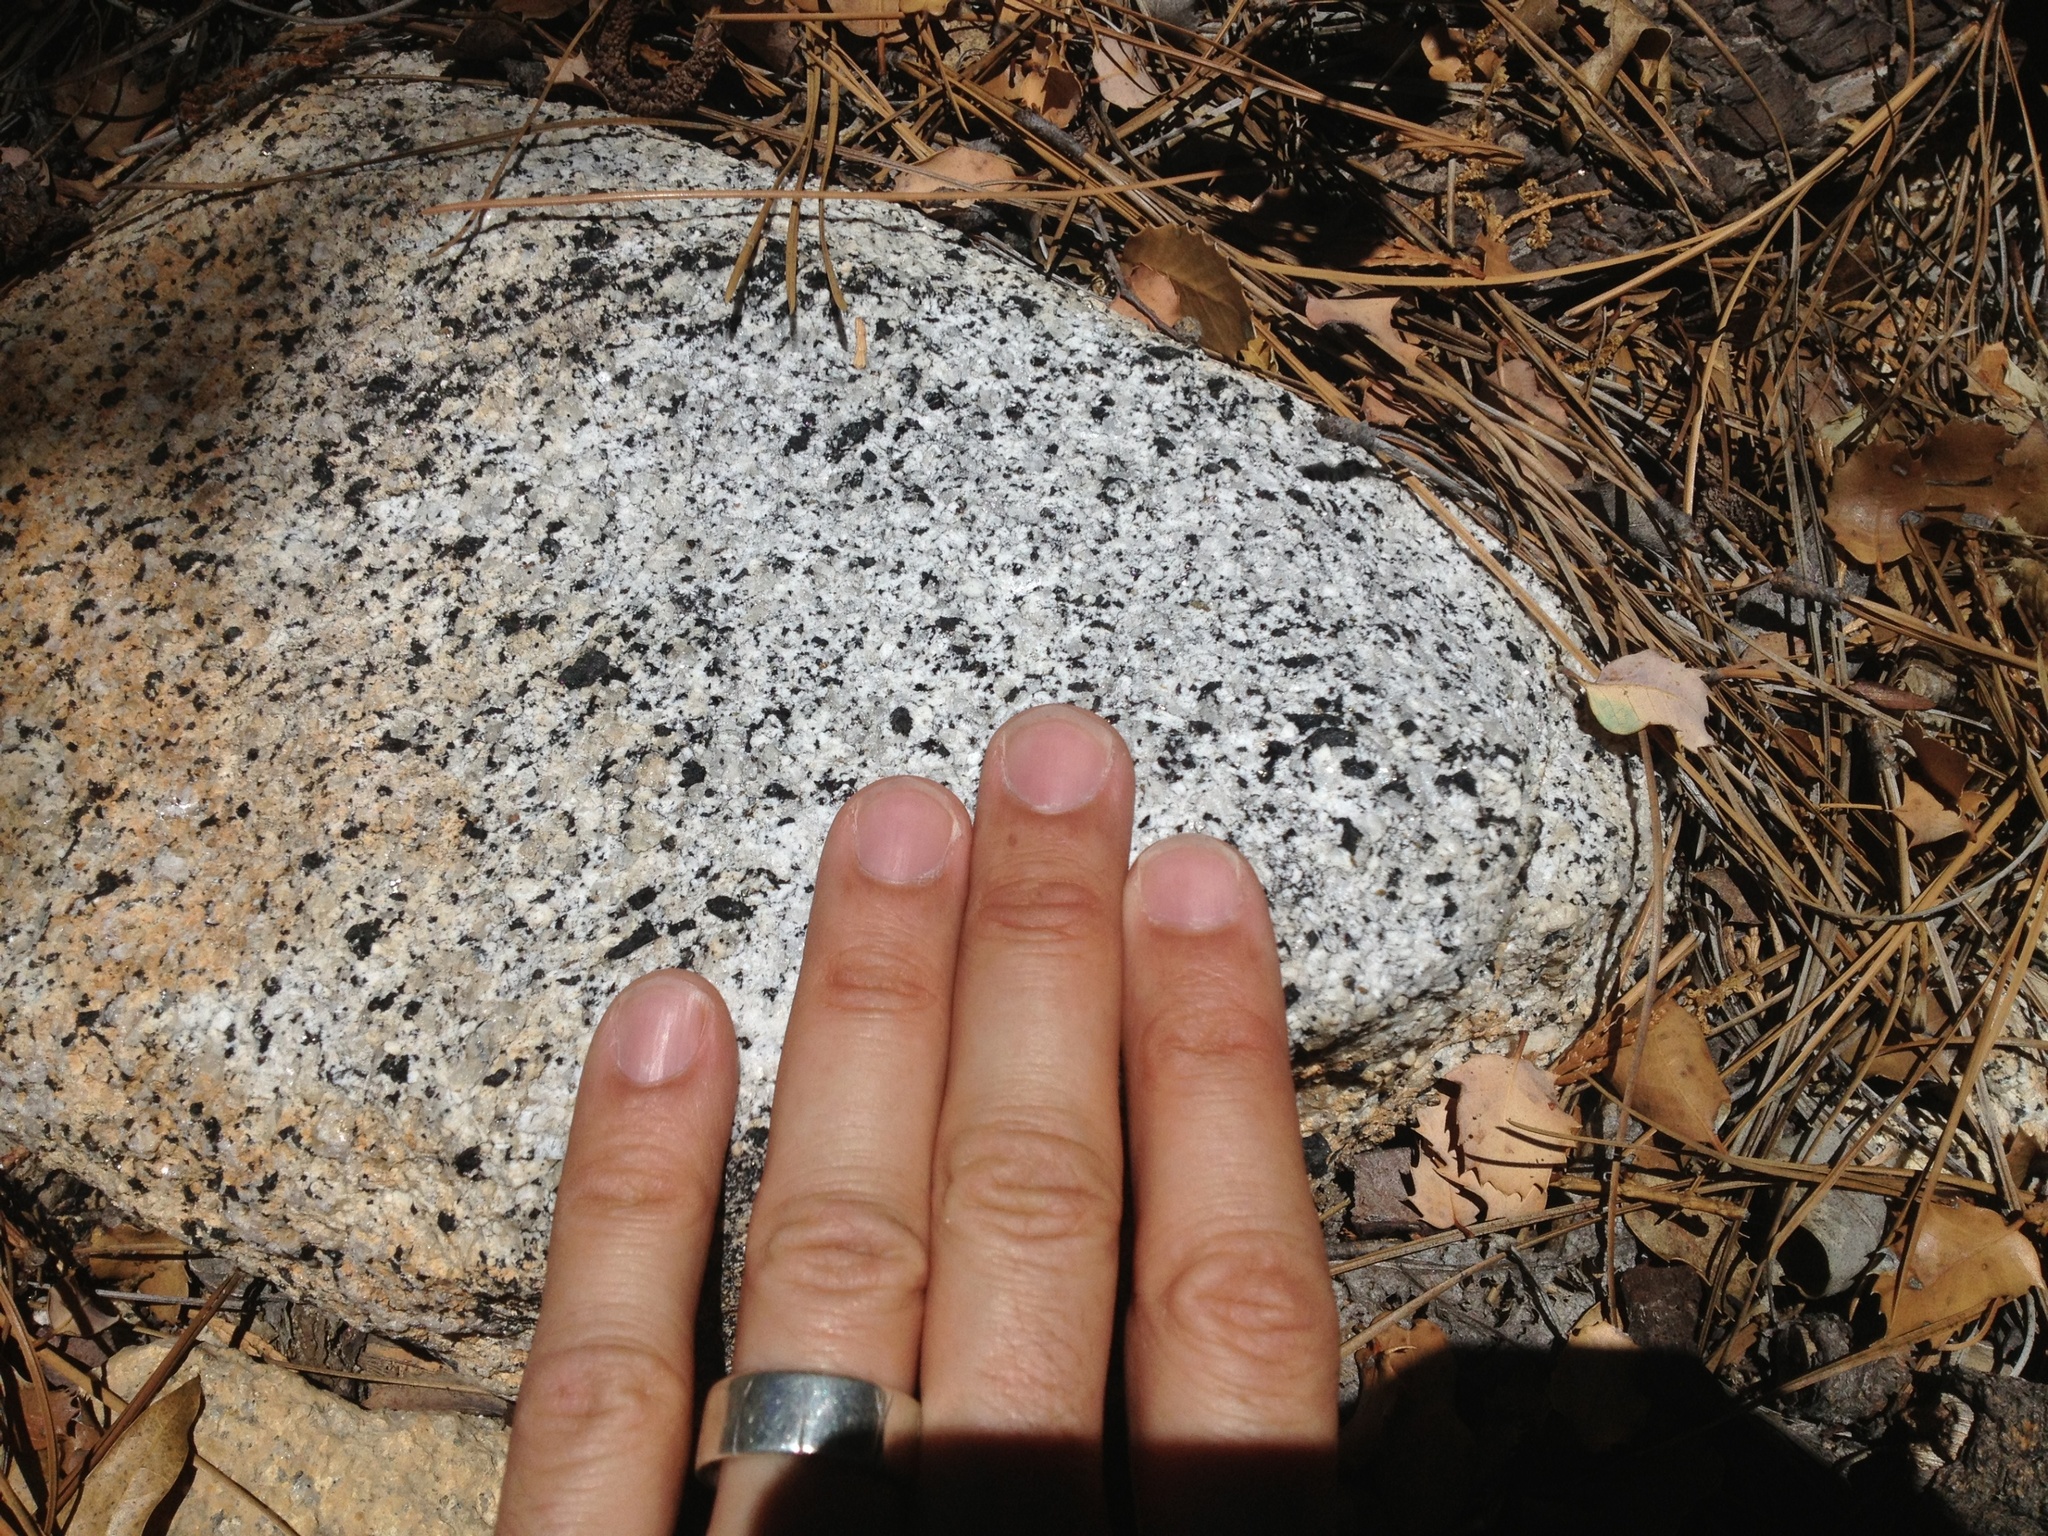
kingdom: Animalia
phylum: Chordata
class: Squamata
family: Phrynosomatidae
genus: Sceloporus
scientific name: Sceloporus graciosus
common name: Sagebrush lizard
